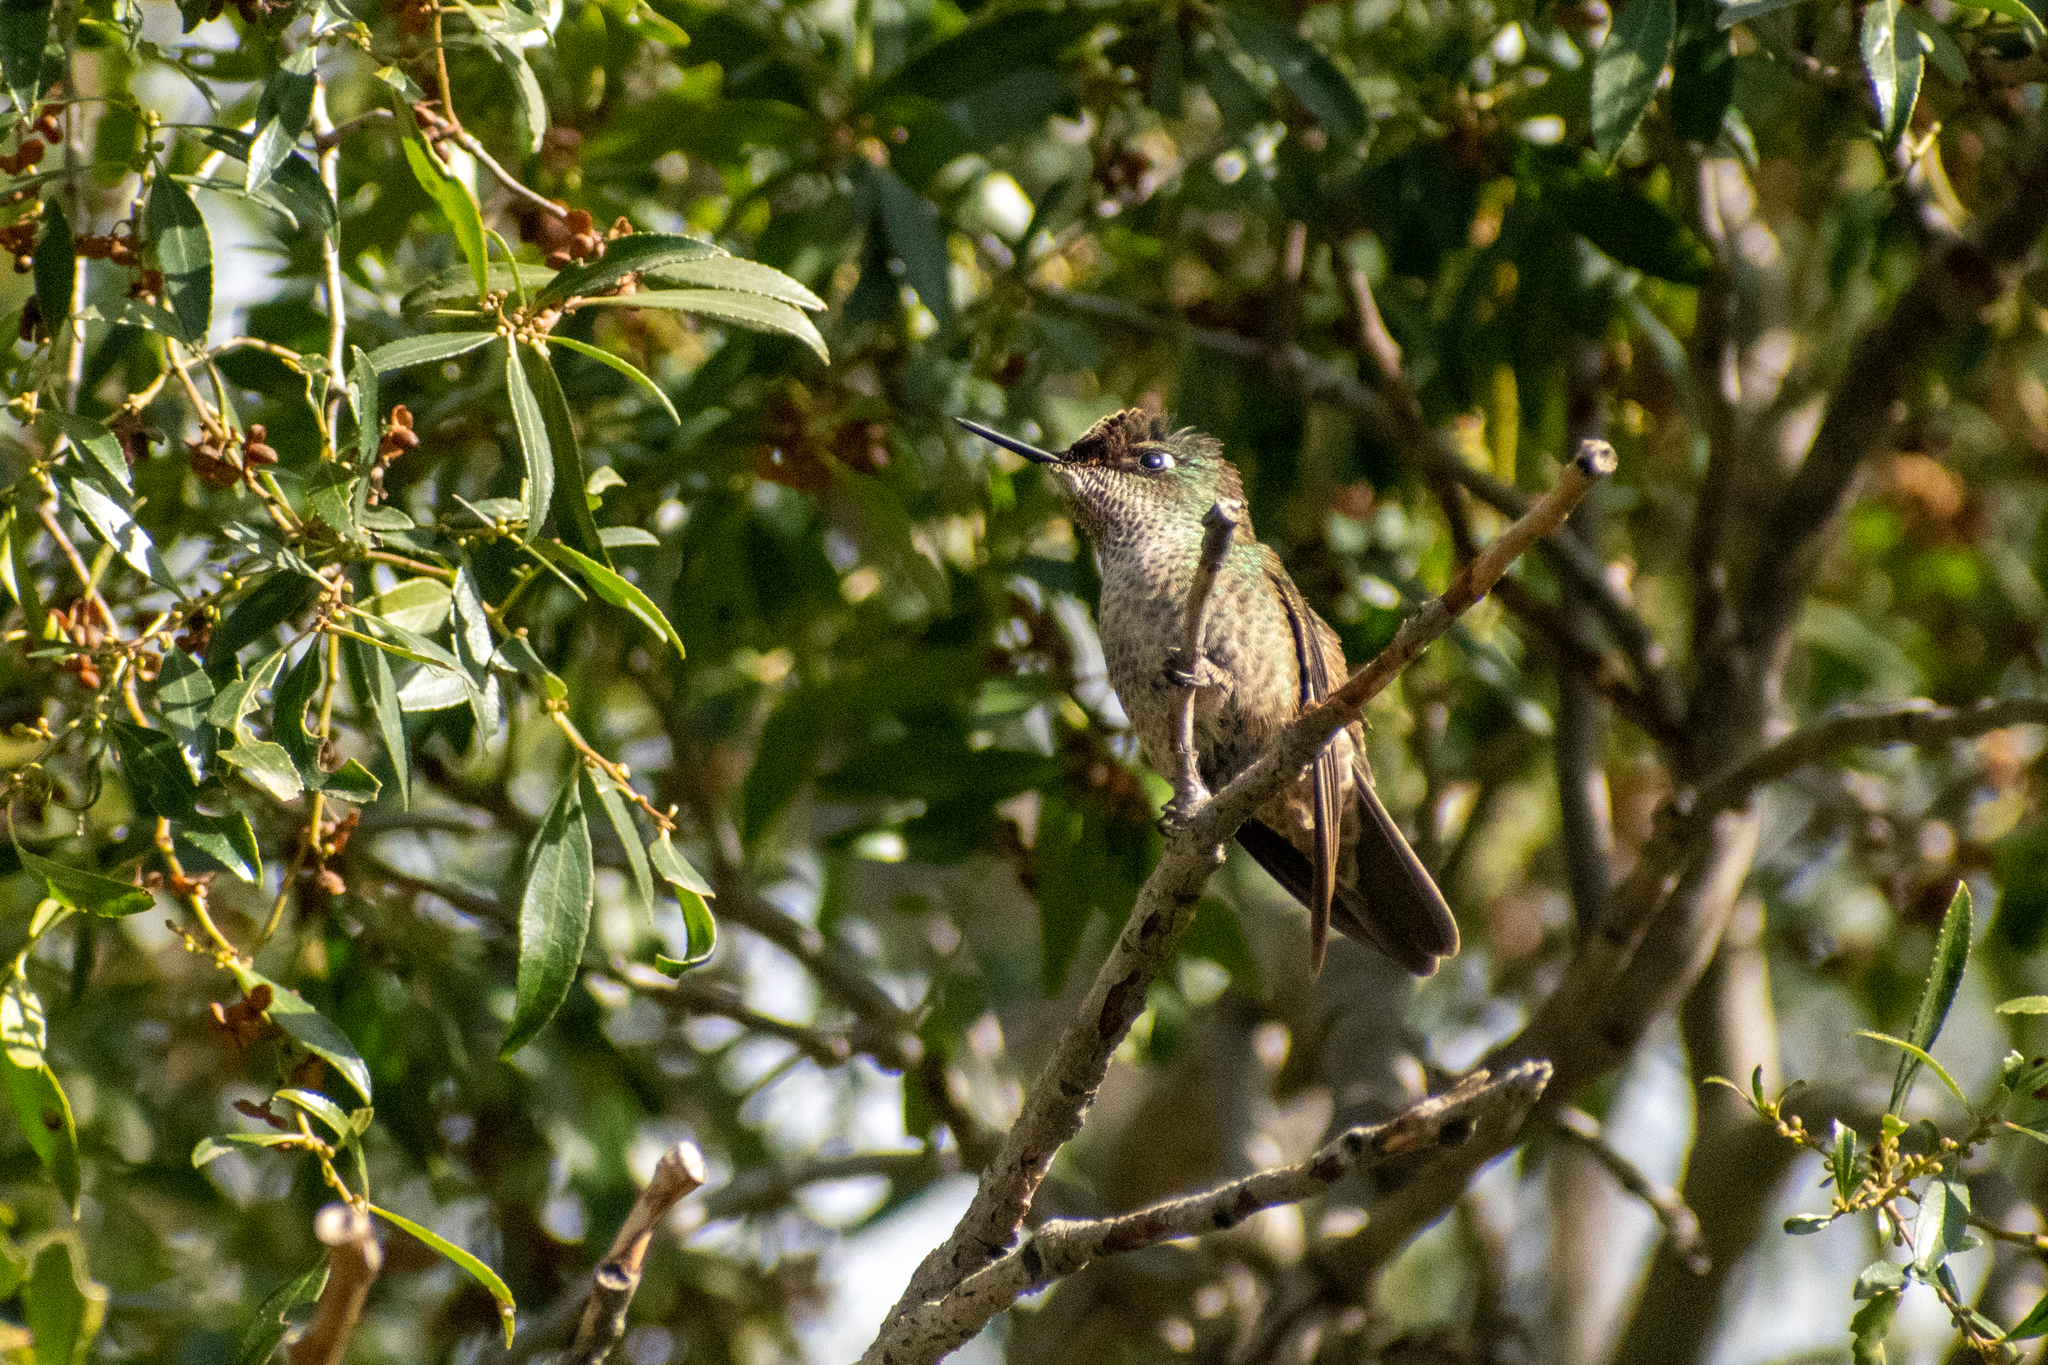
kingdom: Animalia
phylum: Chordata
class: Aves
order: Apodiformes
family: Trochilidae
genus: Sephanoides
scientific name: Sephanoides sephaniodes
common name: Green-backed firecrown
